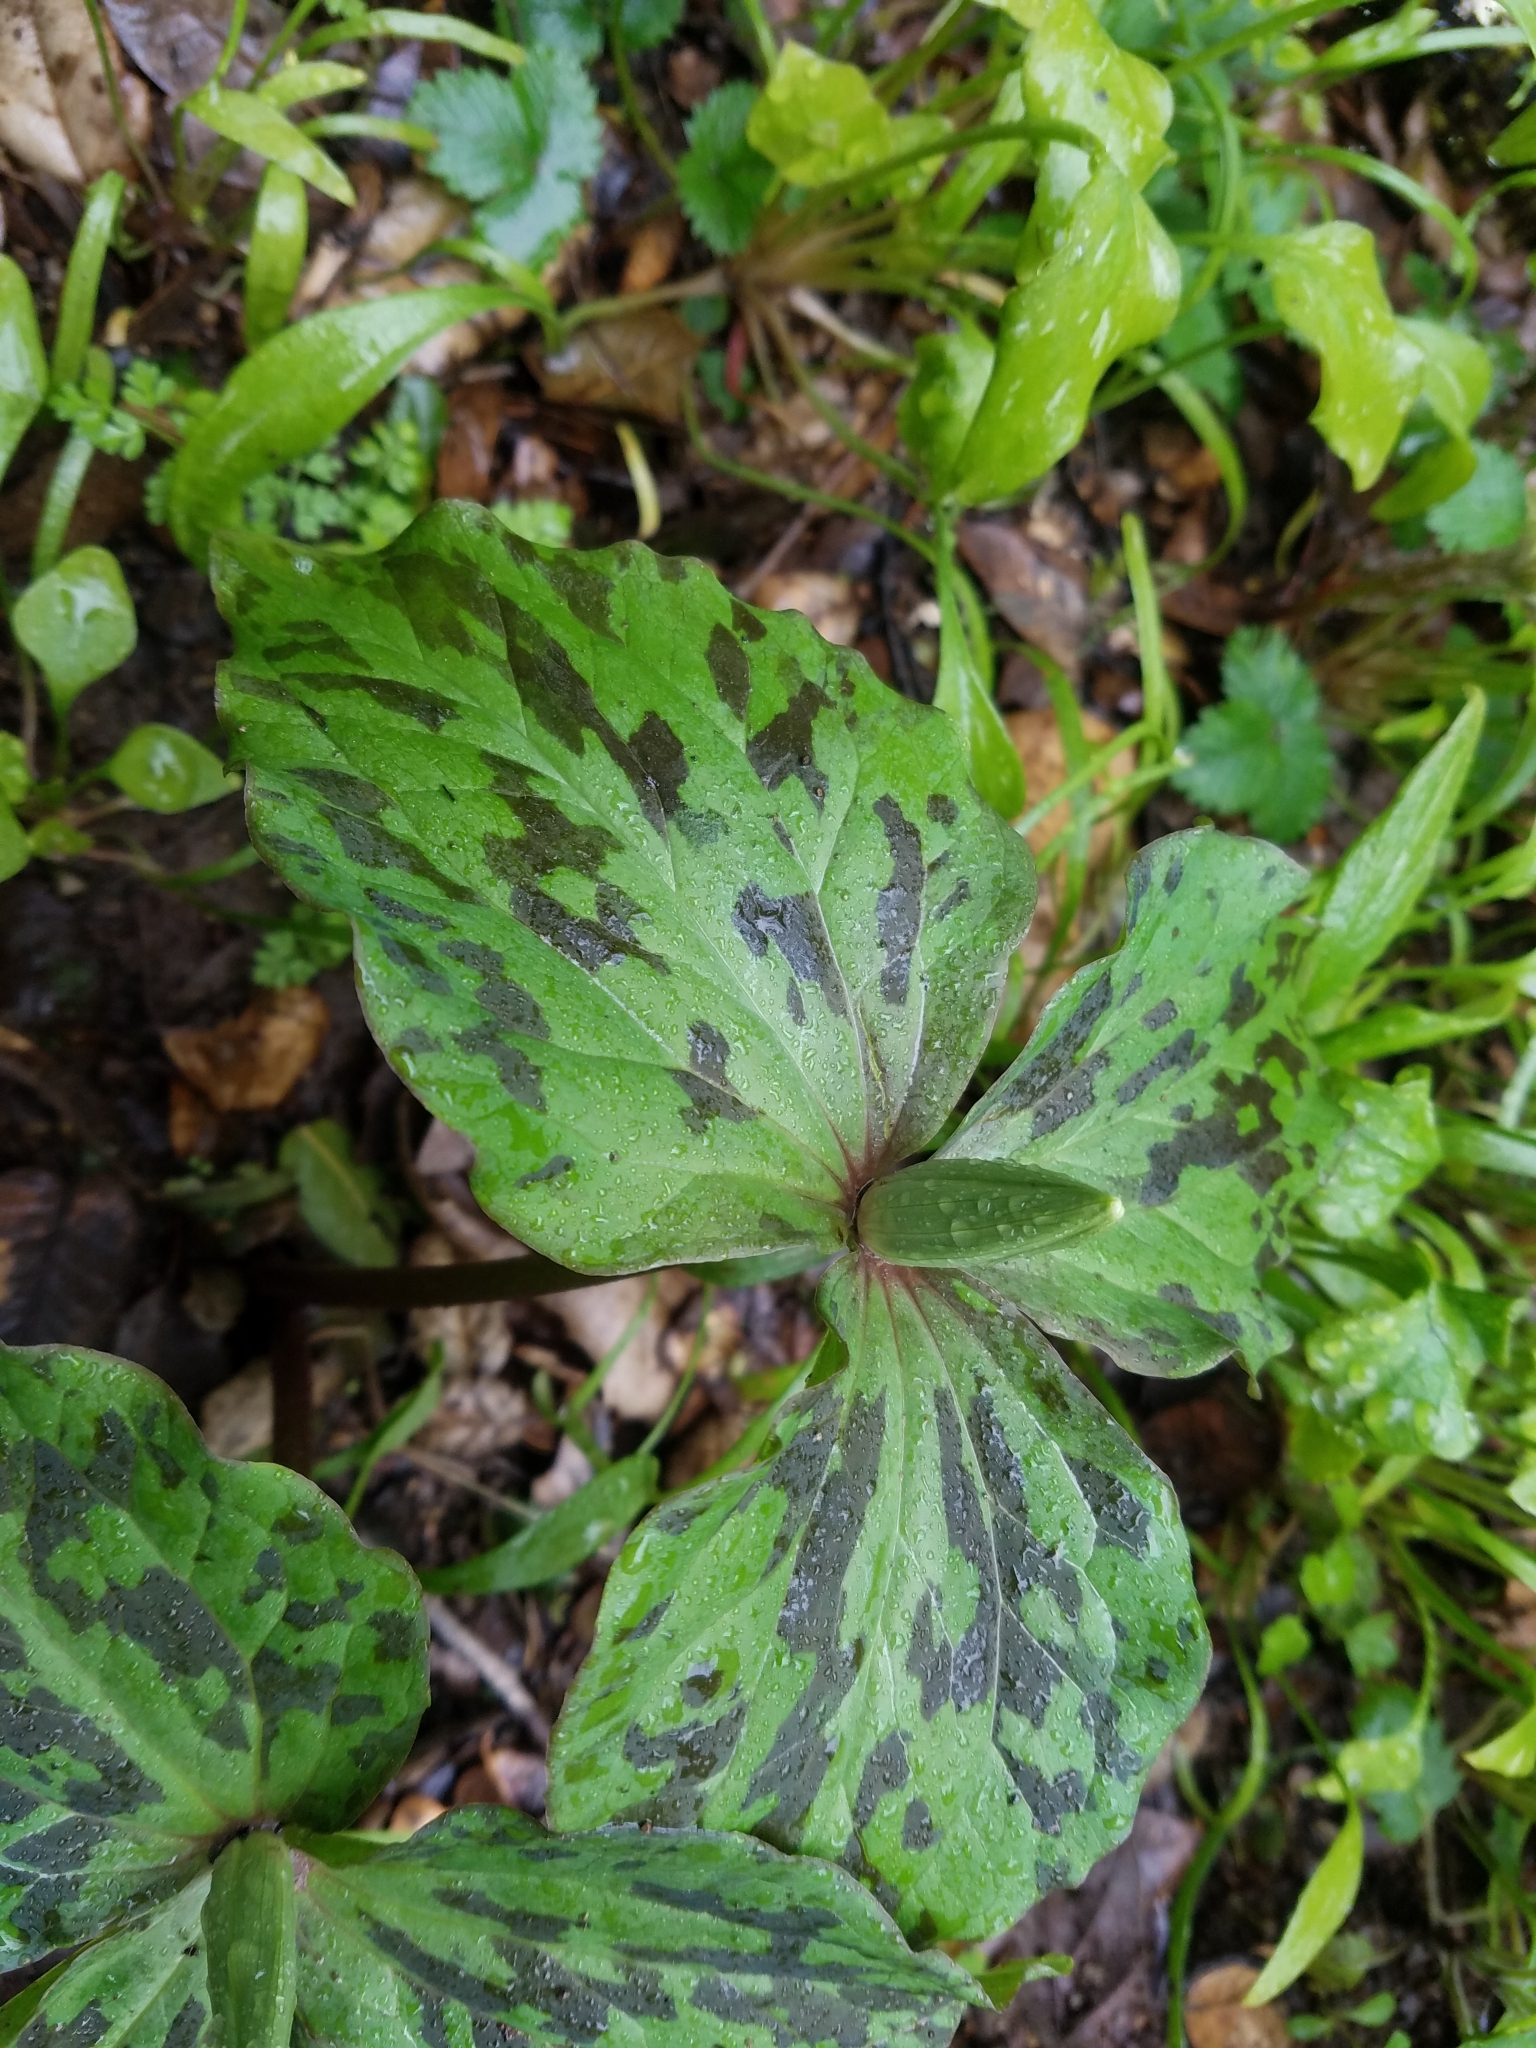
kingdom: Plantae
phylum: Tracheophyta
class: Liliopsida
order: Liliales
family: Melanthiaceae
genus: Trillium
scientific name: Trillium chloropetalum
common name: Giant trillium
